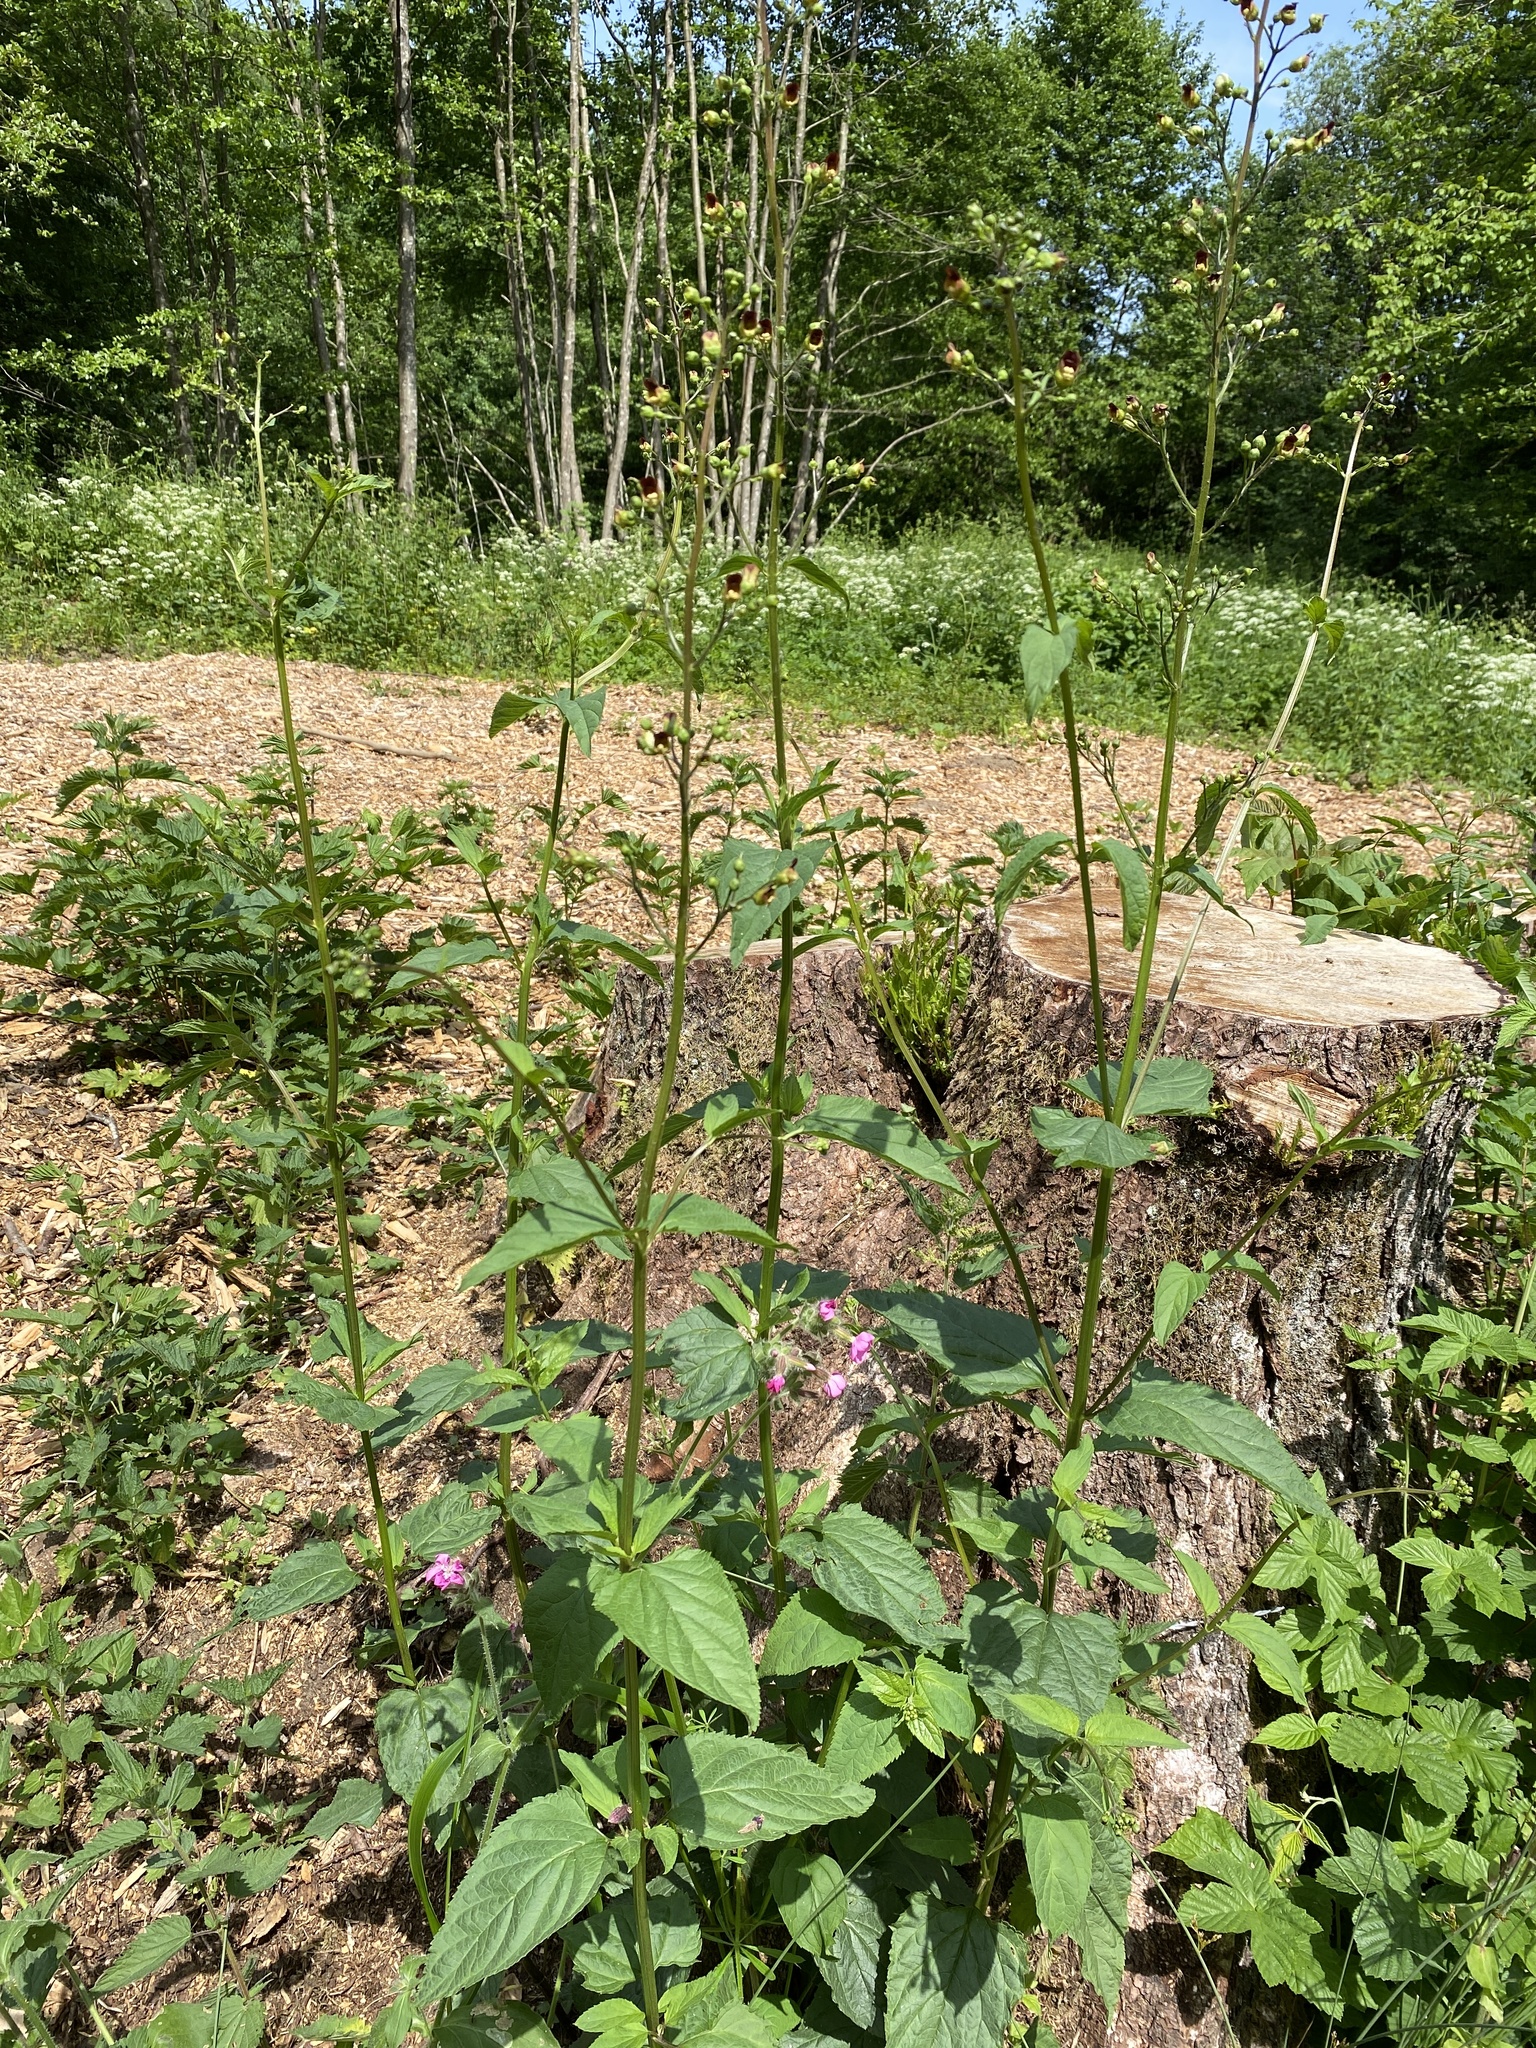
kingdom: Plantae
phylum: Tracheophyta
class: Magnoliopsida
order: Lamiales
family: Scrophulariaceae
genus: Scrophularia
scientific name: Scrophularia nodosa
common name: Common figwort
